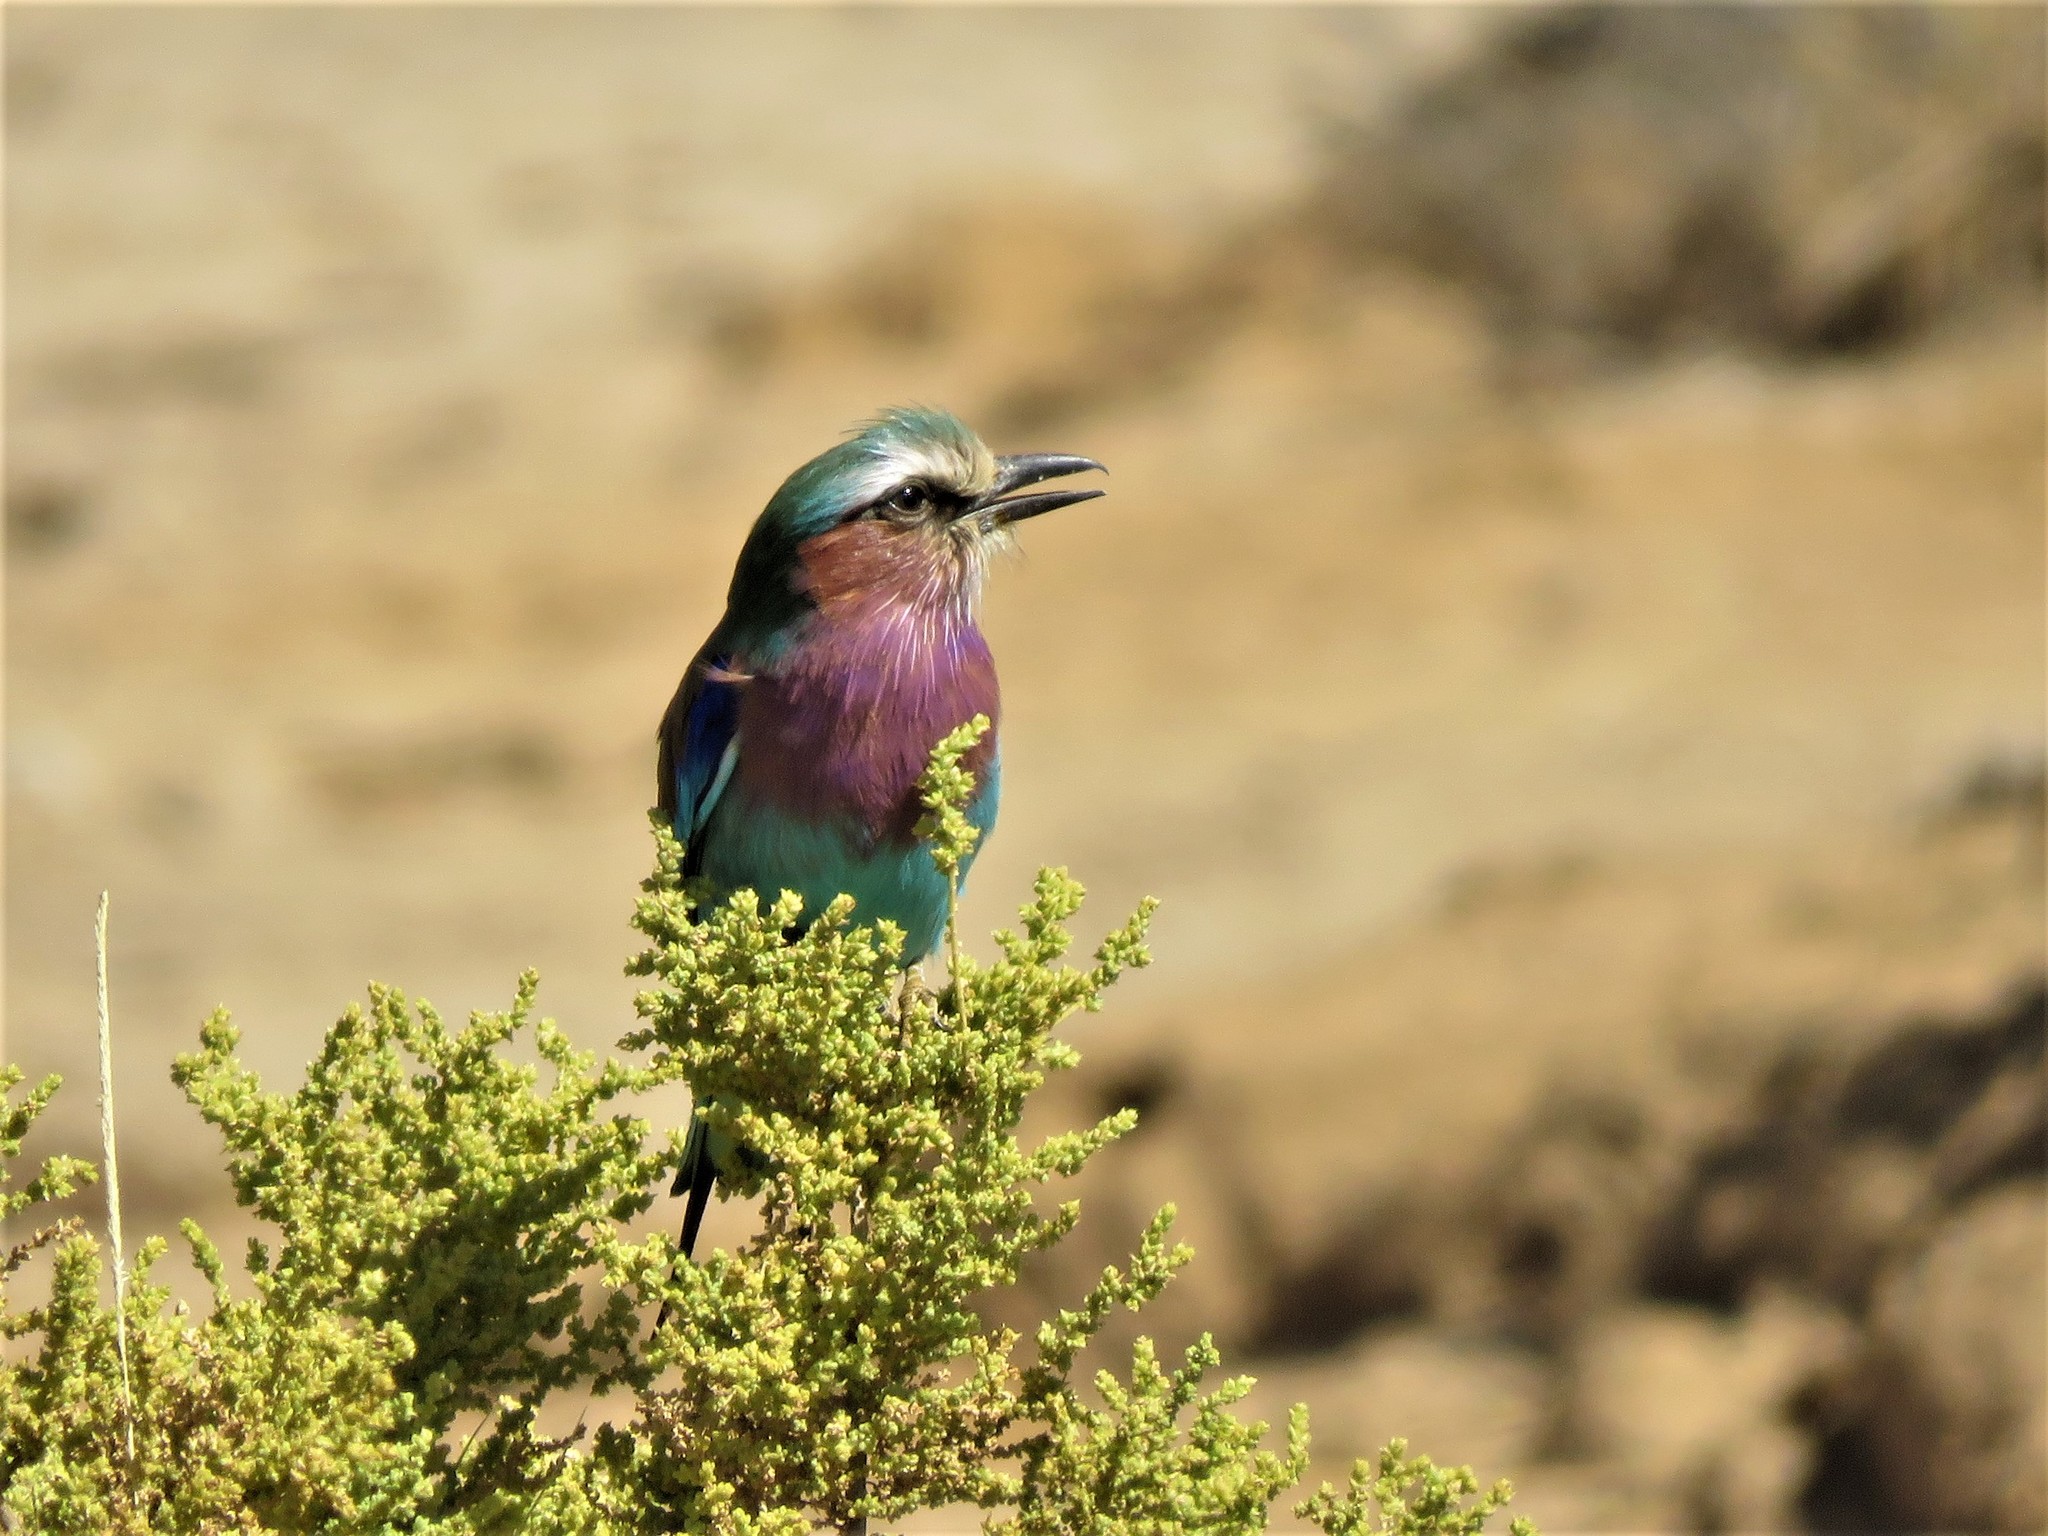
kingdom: Animalia
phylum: Chordata
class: Aves
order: Coraciiformes
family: Coraciidae
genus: Coracias
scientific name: Coracias caudatus
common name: Lilac-breasted roller
